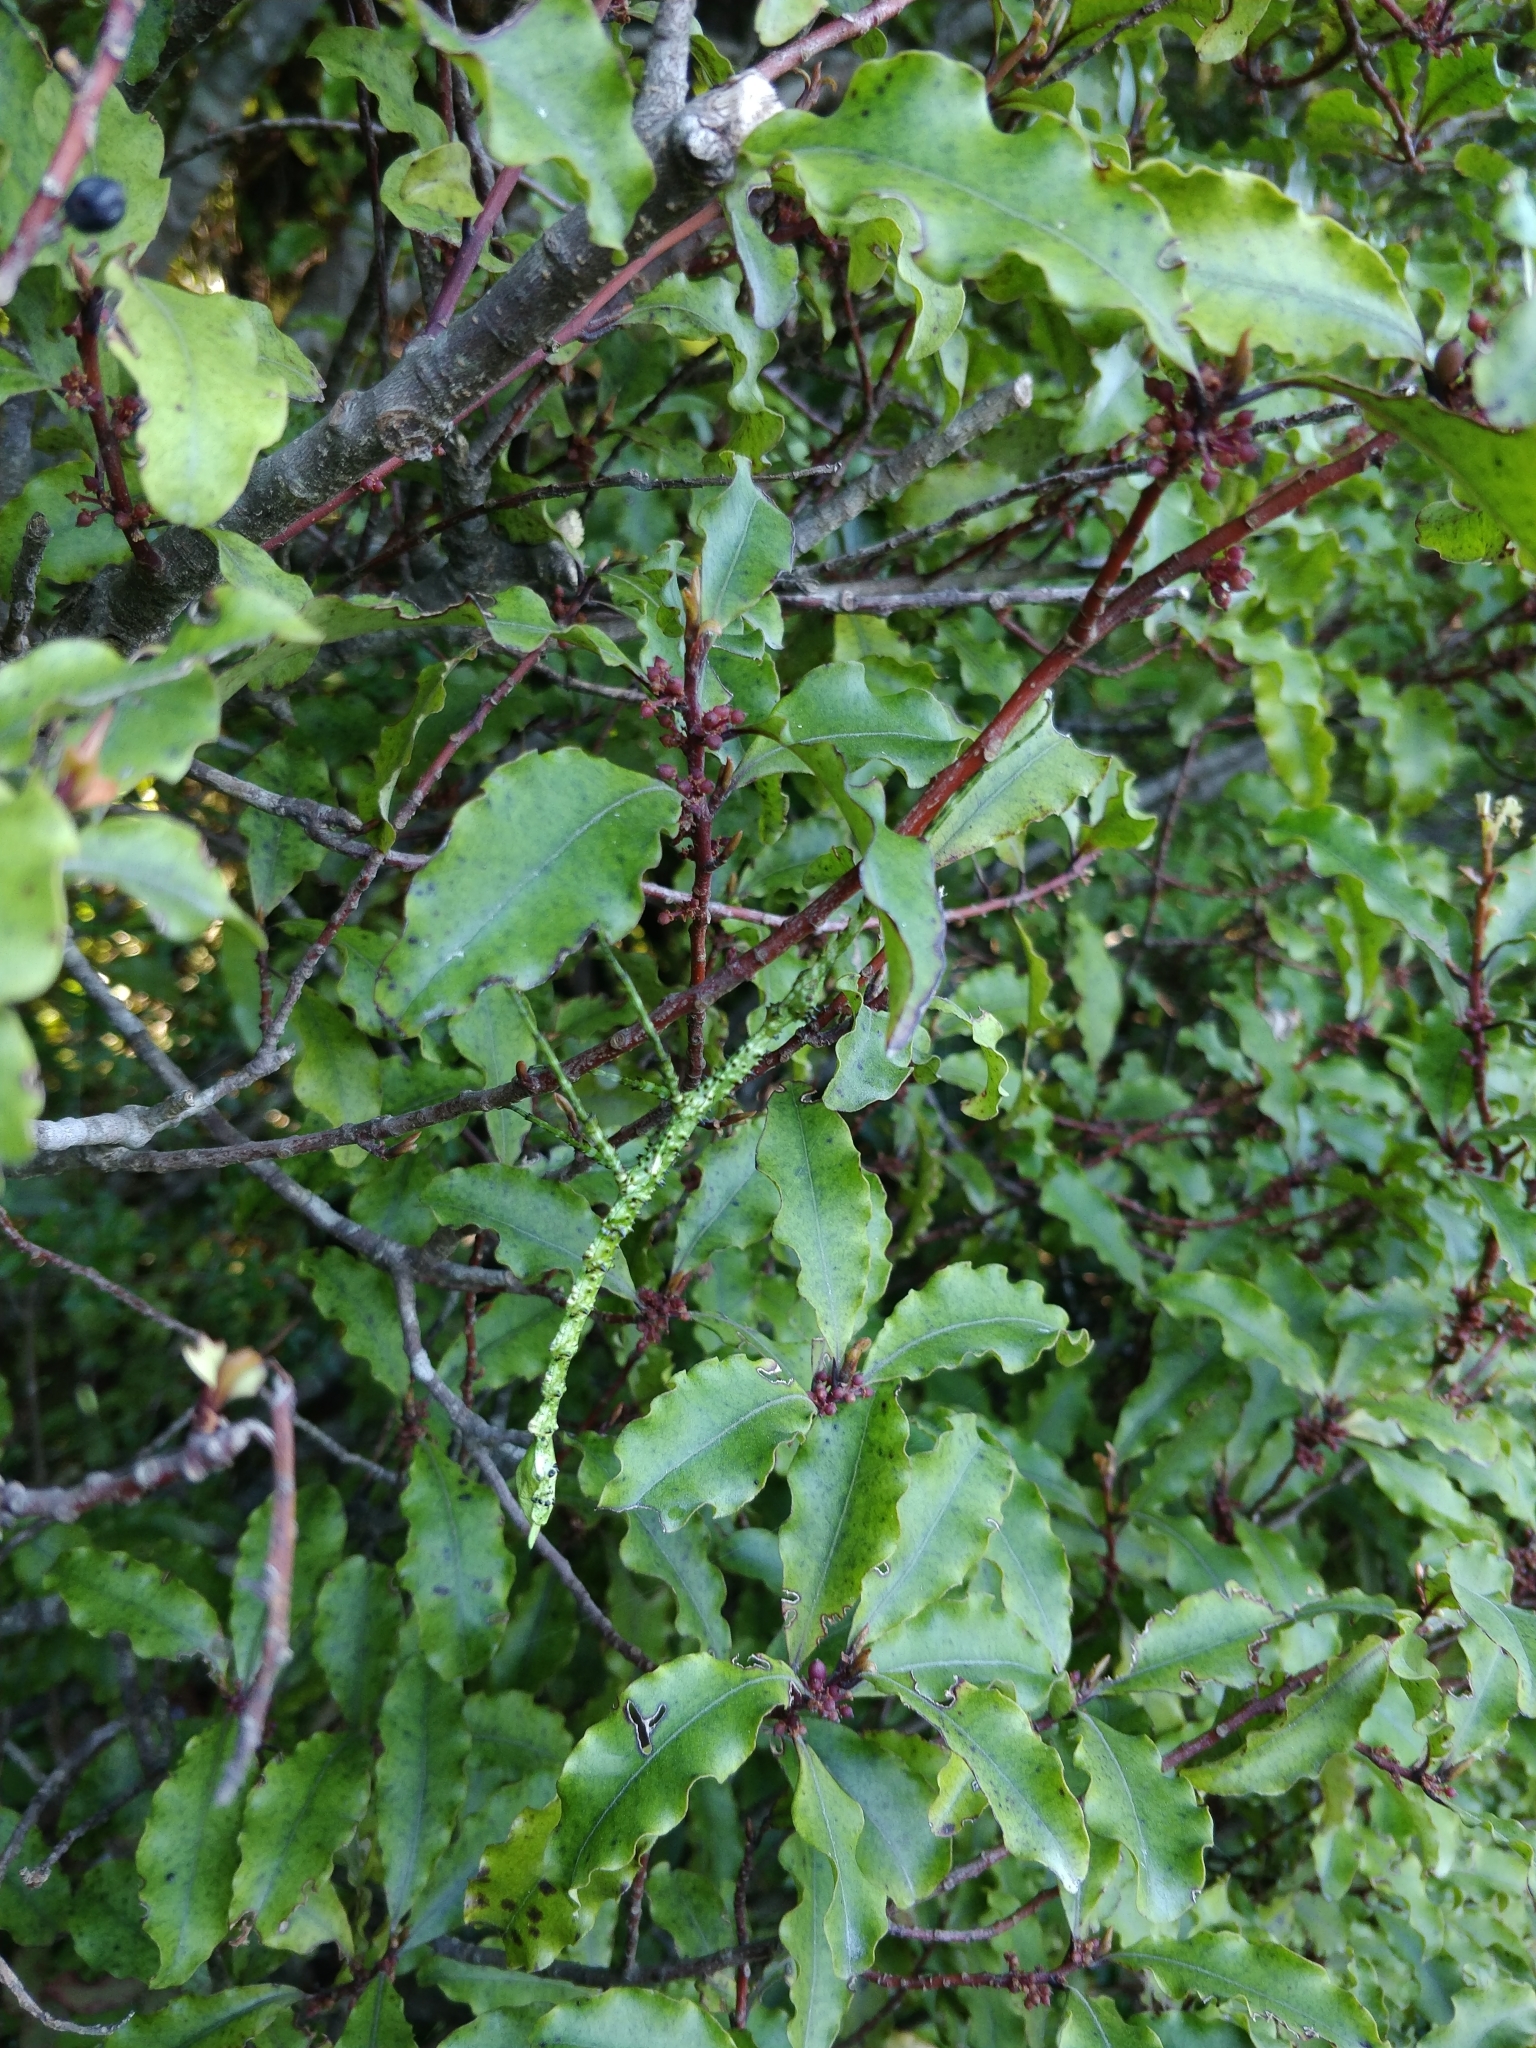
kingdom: Animalia
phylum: Arthropoda
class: Insecta
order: Phasmida
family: Phasmatidae
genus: Acanthoxyla
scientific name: Acanthoxyla prasina
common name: Black-spined stick insect
